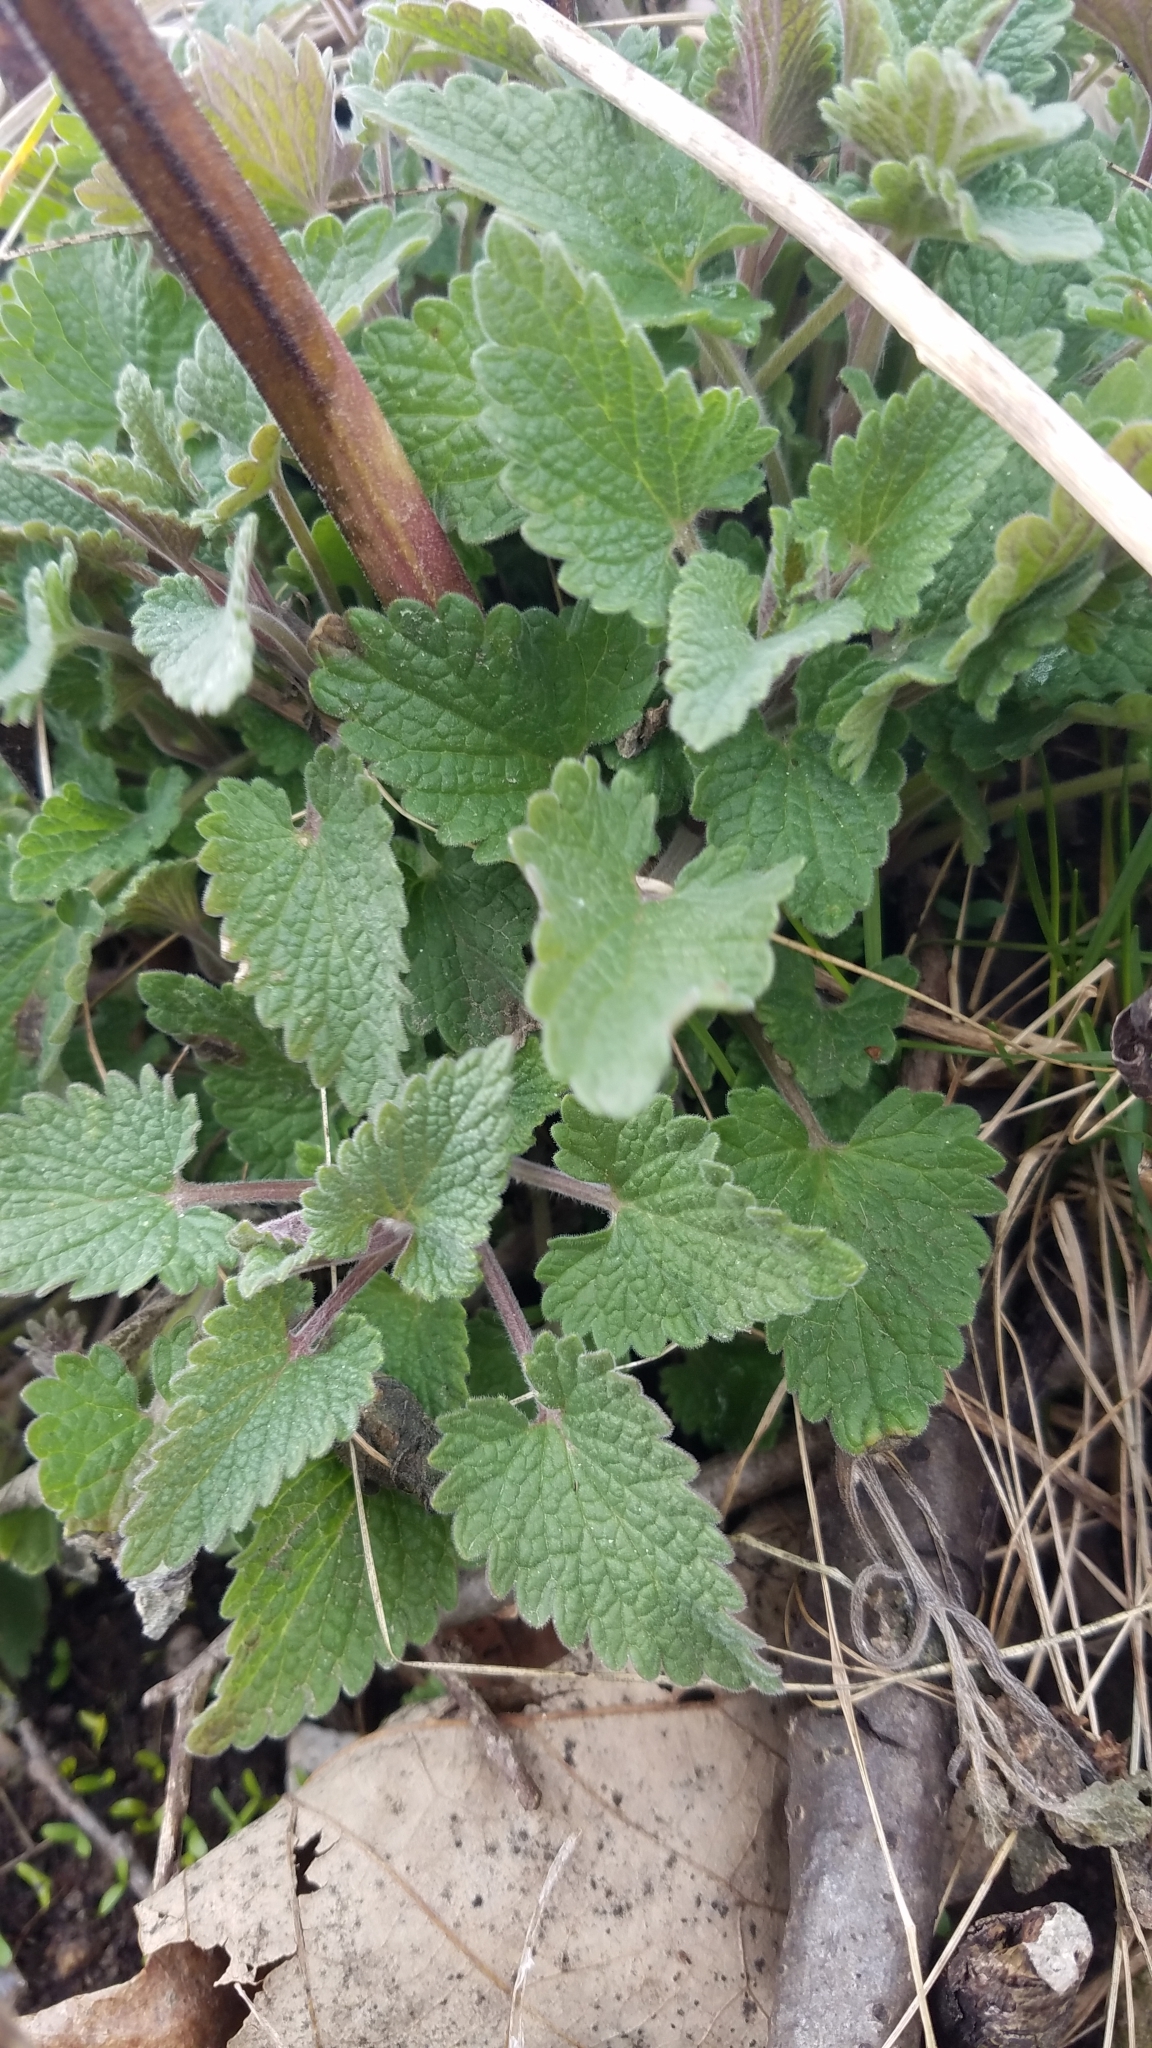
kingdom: Plantae
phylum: Tracheophyta
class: Magnoliopsida
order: Lamiales
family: Lamiaceae
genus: Nepeta
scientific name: Nepeta cataria
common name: Catnip
